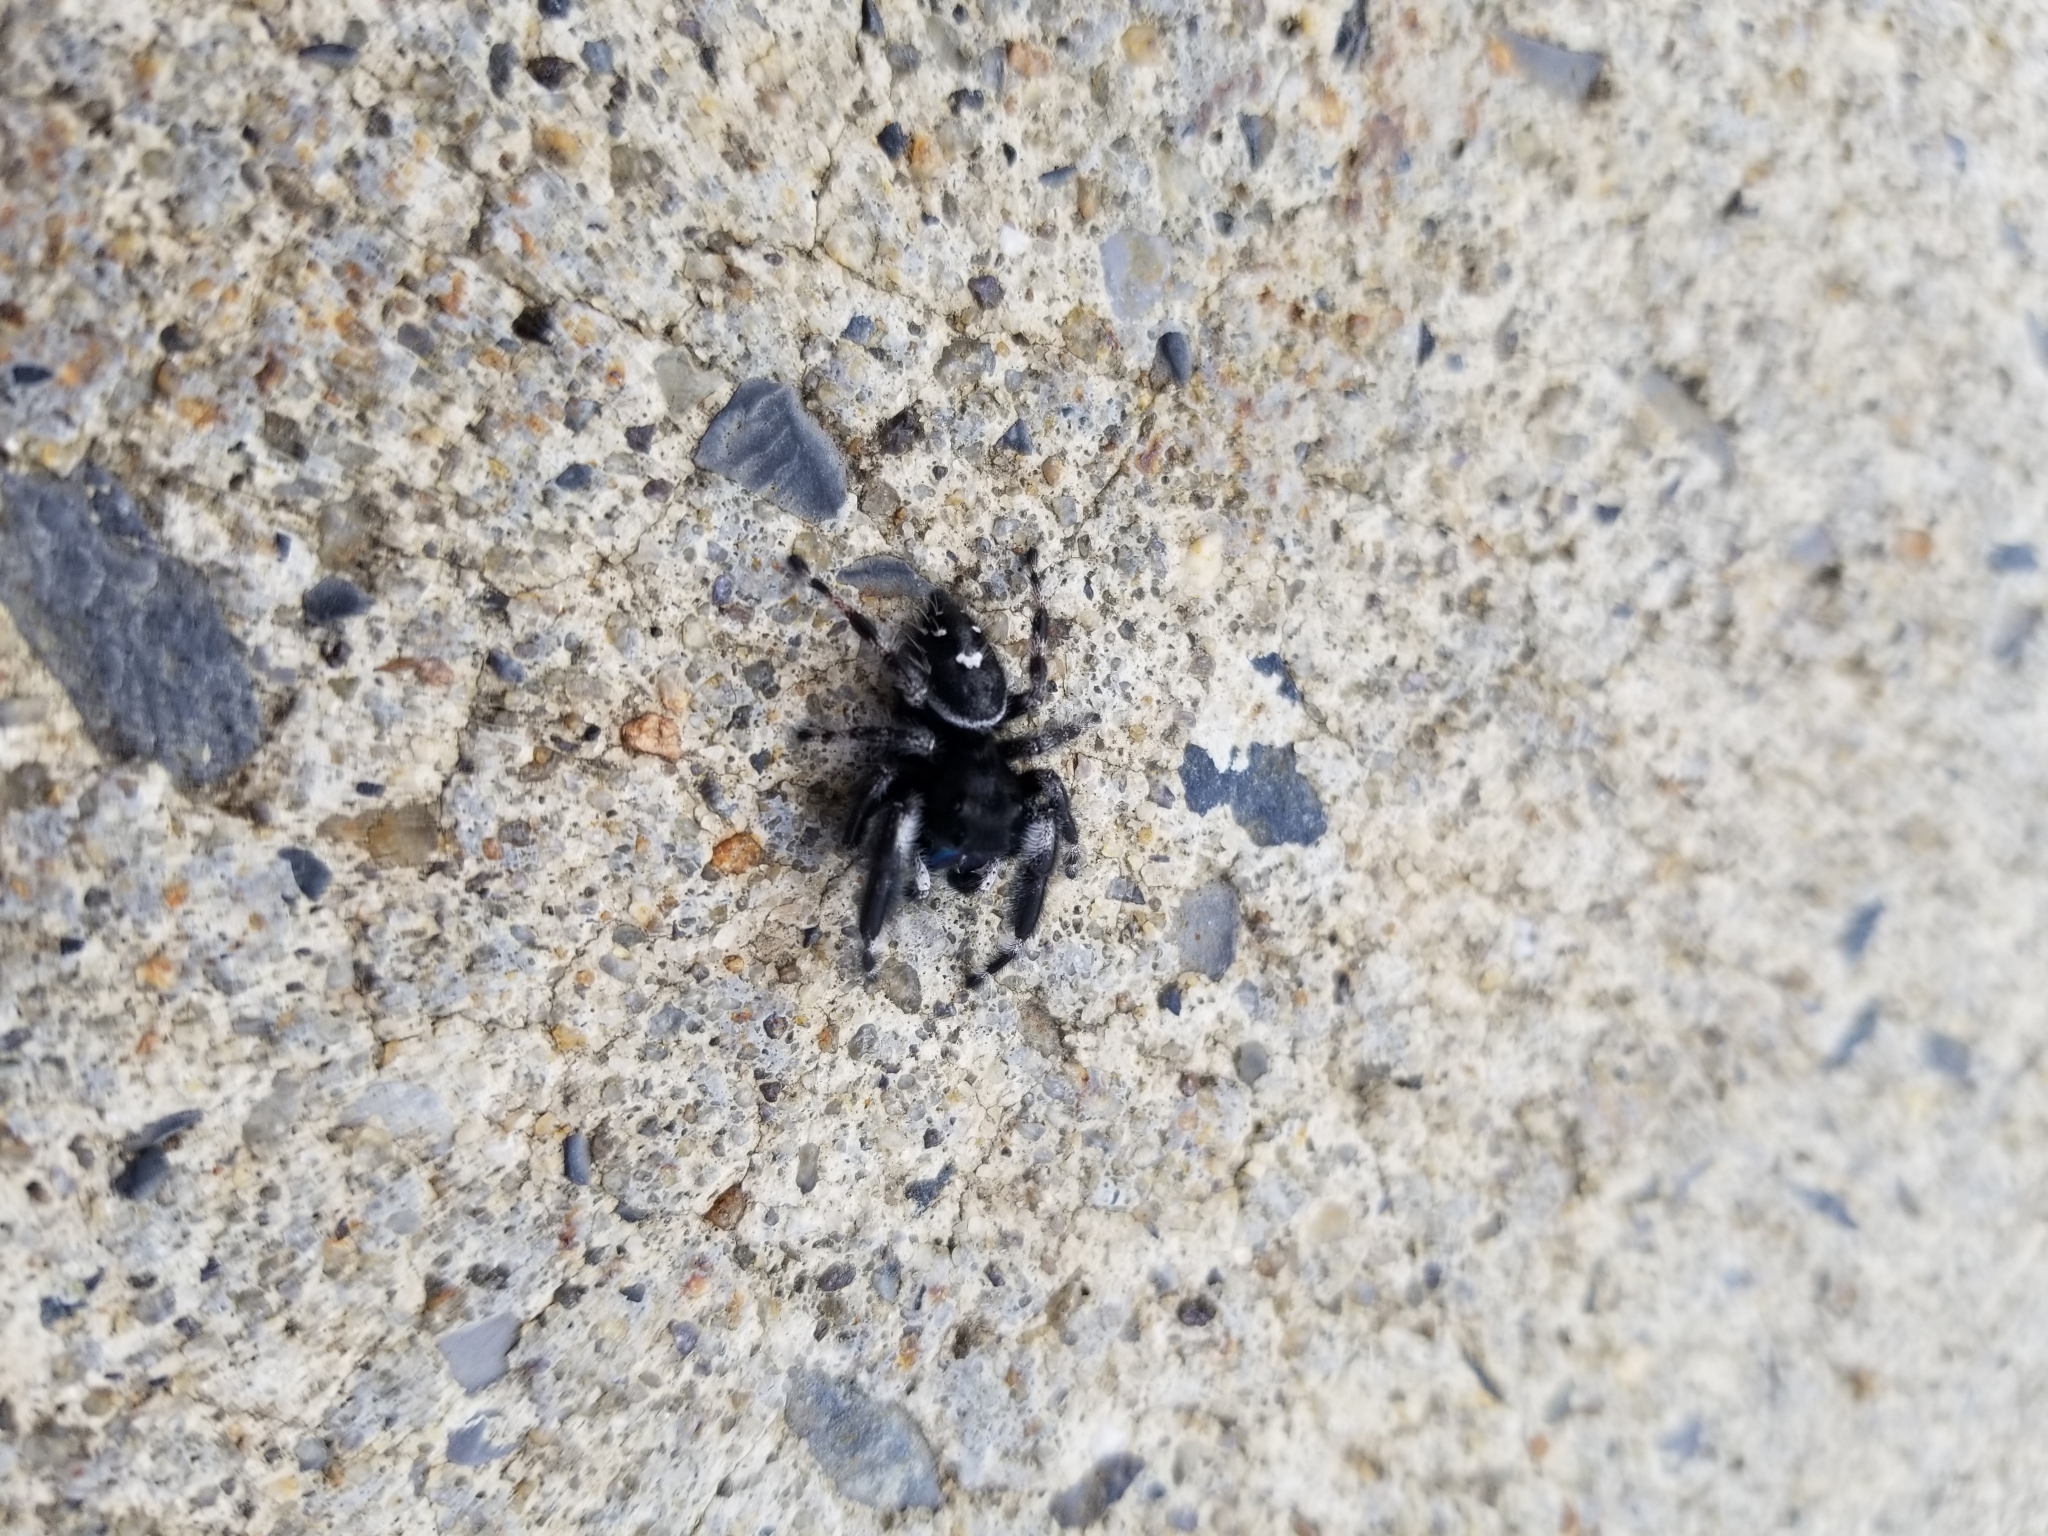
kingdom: Animalia
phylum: Arthropoda
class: Arachnida
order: Araneae
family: Salticidae
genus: Phidippus
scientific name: Phidippus audax
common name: Bold jumper
